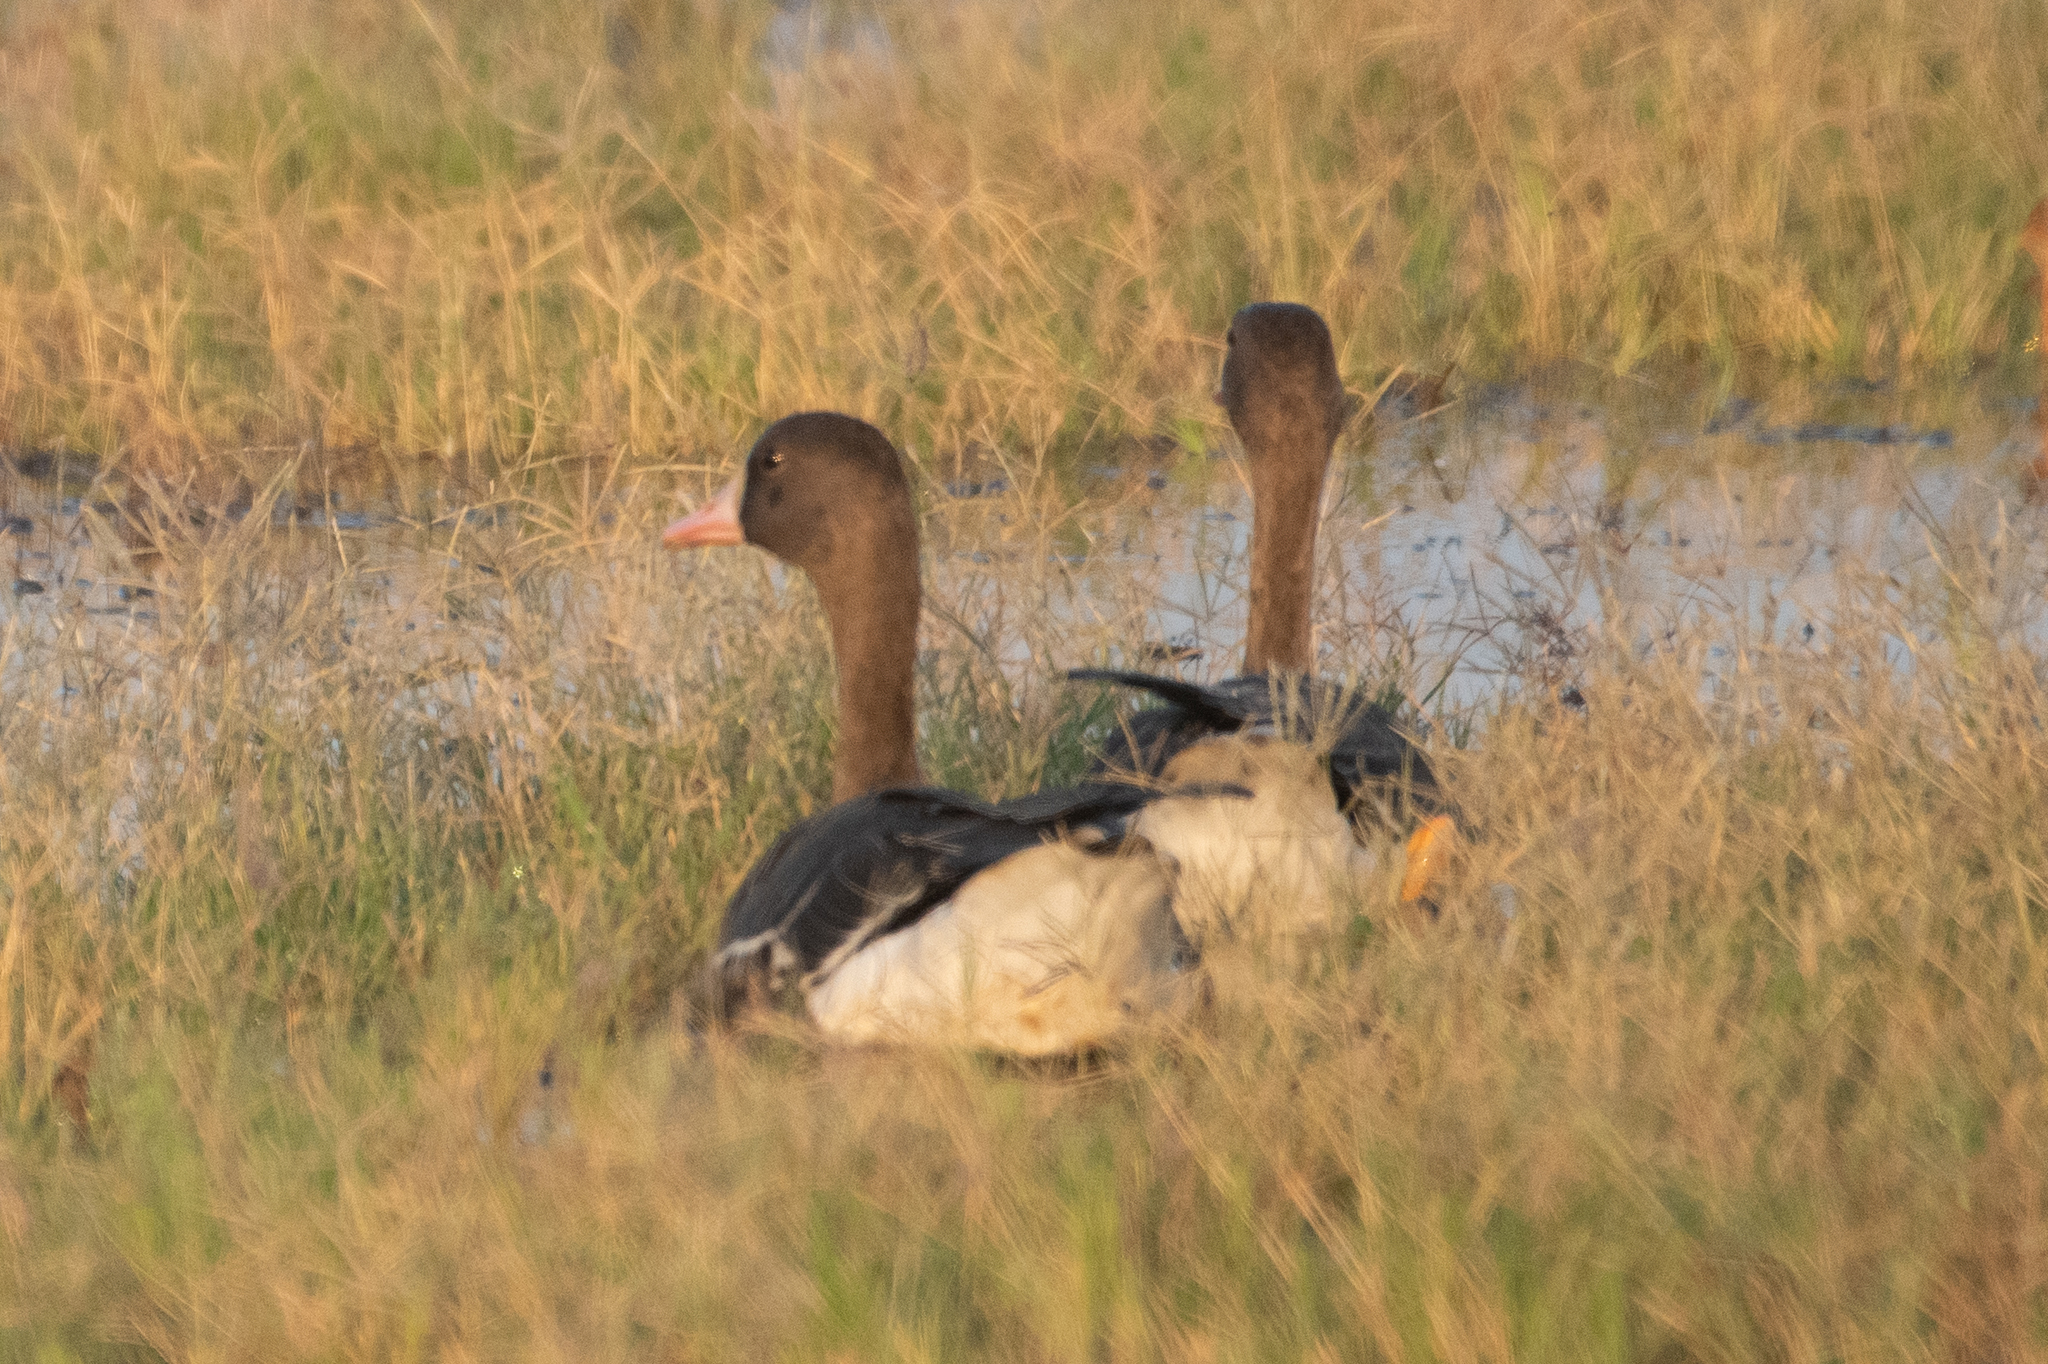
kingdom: Animalia
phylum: Chordata
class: Aves
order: Anseriformes
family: Anatidae
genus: Anser
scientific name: Anser albifrons
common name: Greater white-fronted goose
